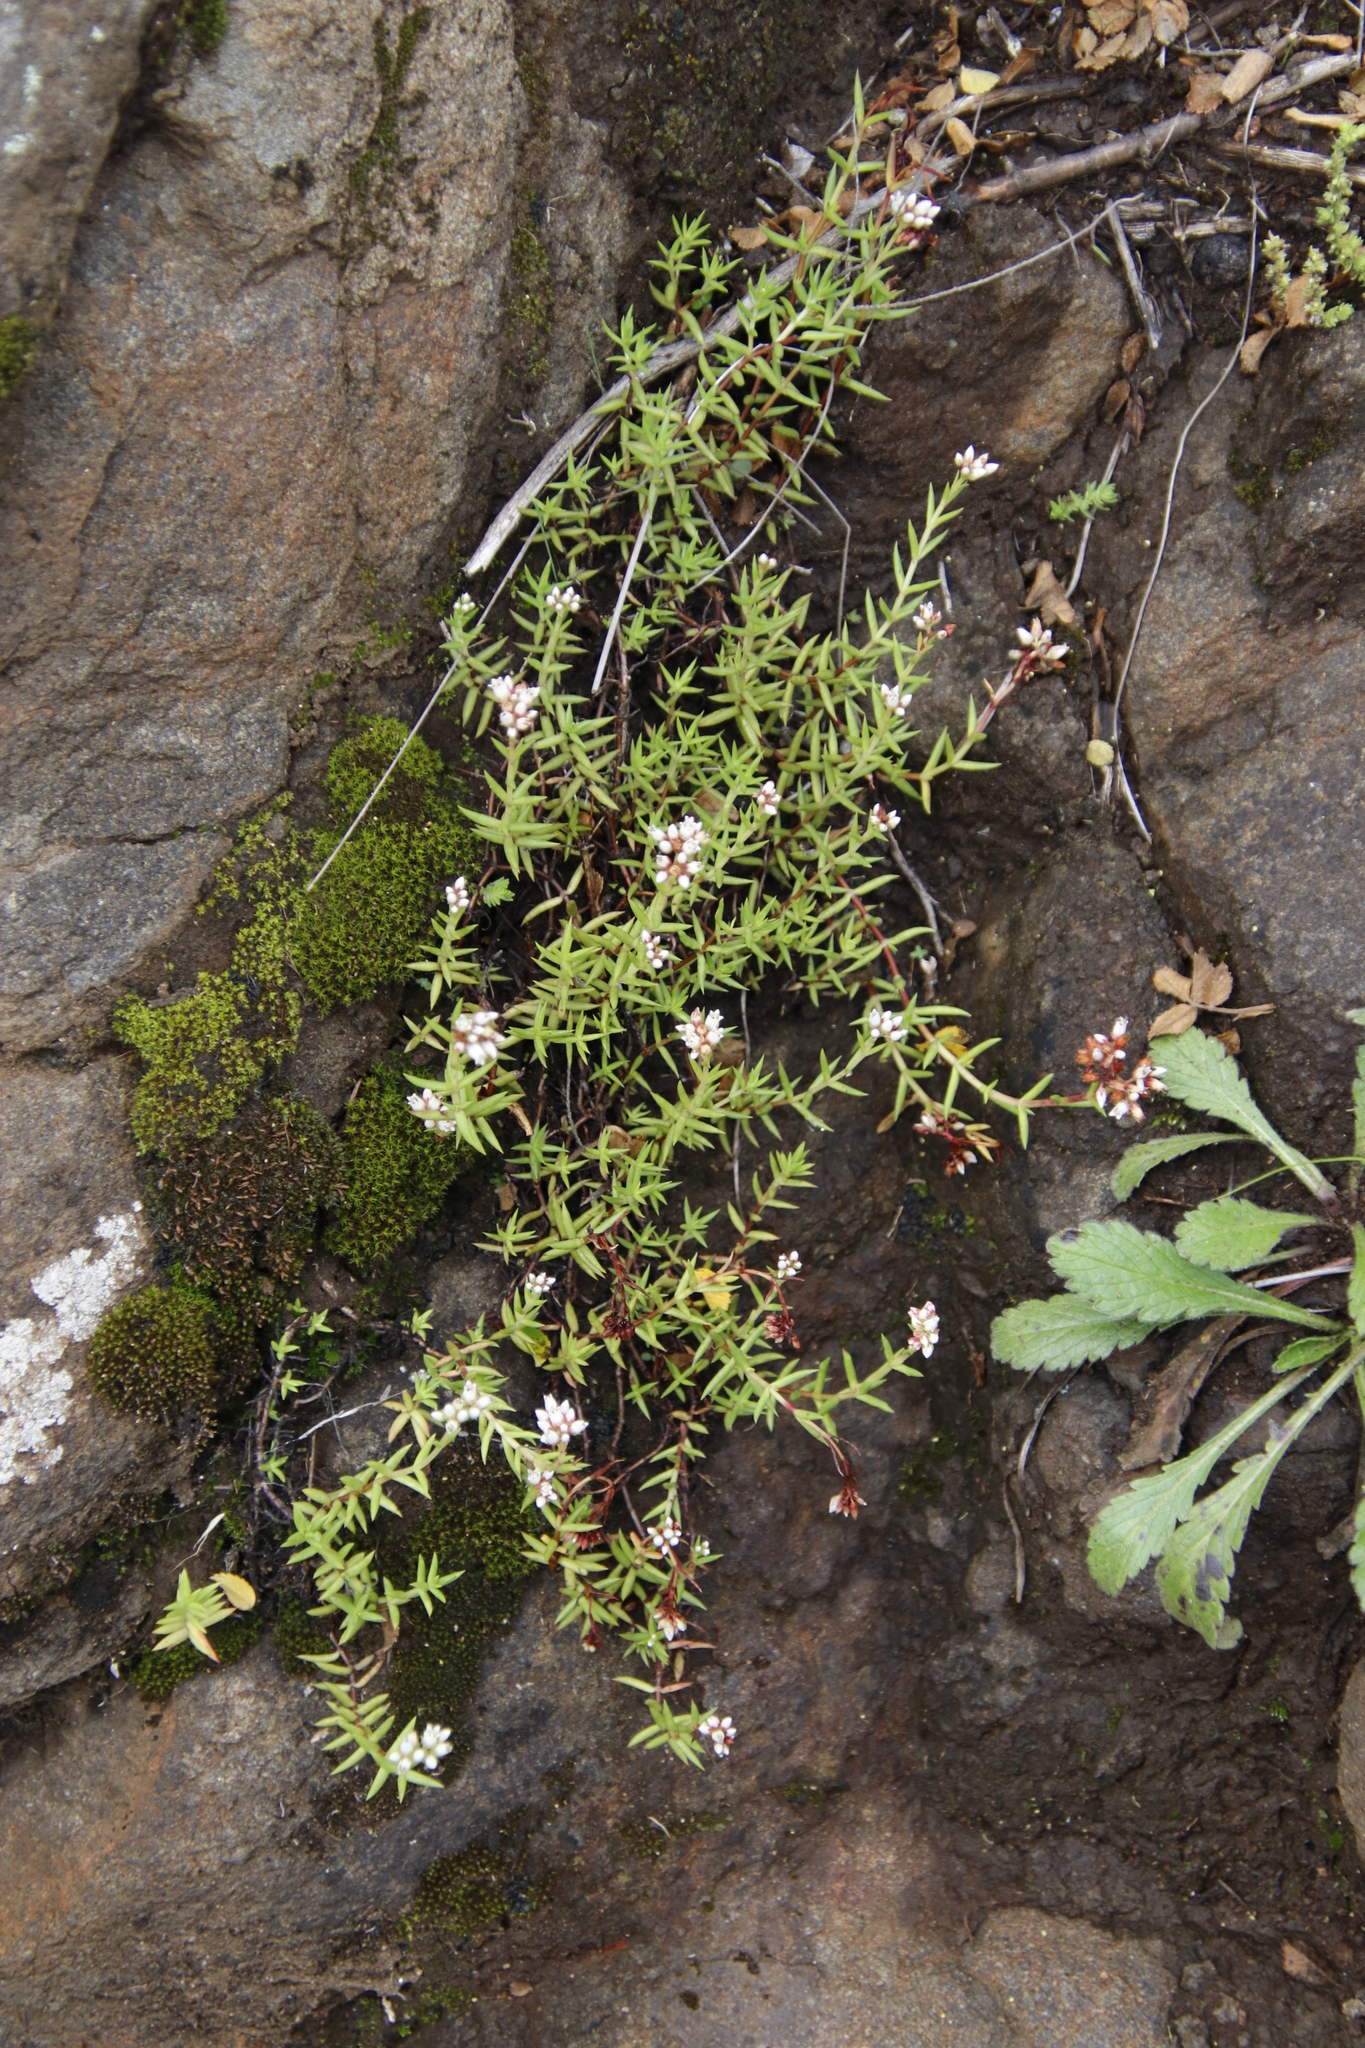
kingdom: Plantae
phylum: Tracheophyta
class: Magnoliopsida
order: Saxifragales
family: Crassulaceae
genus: Crassula
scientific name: Crassula dependens
